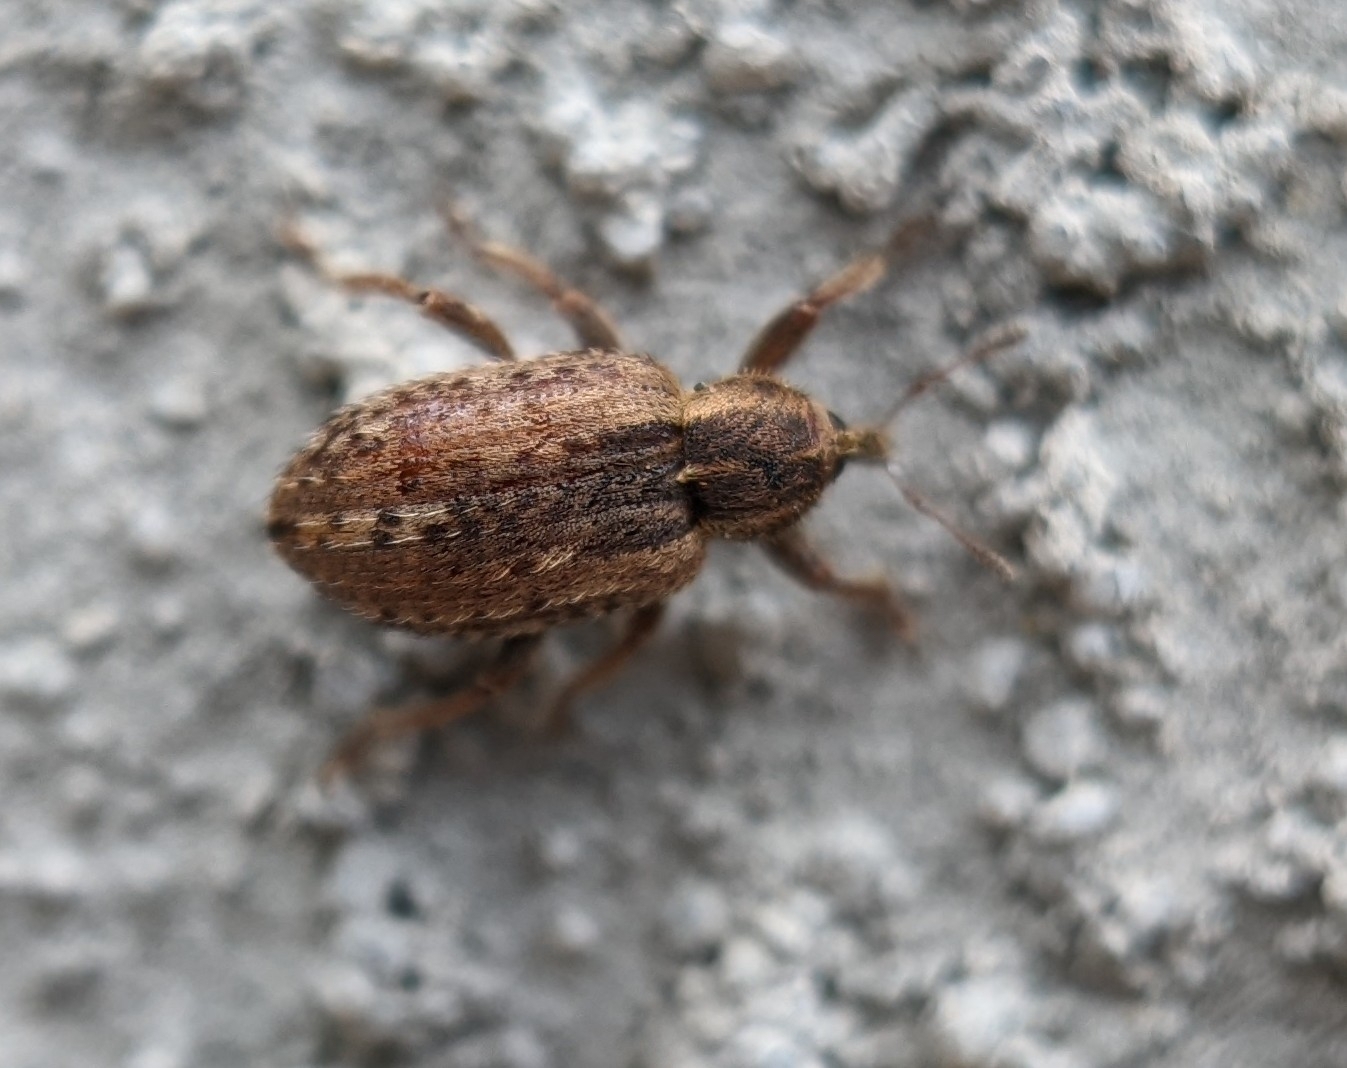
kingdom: Animalia
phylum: Arthropoda
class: Insecta
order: Coleoptera
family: Curculionidae
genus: Hypera
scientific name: Hypera postica
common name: Weevil
